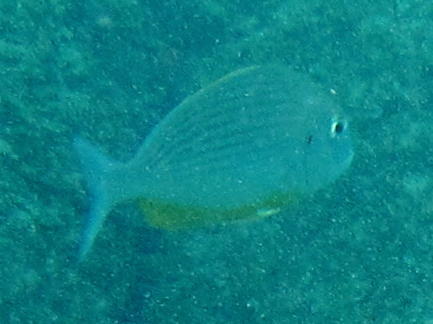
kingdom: Animalia
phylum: Chordata
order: Perciformes
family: Sparidae
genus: Rhabdosargus
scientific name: Rhabdosargus thorpei
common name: Bigeye stumpnose
